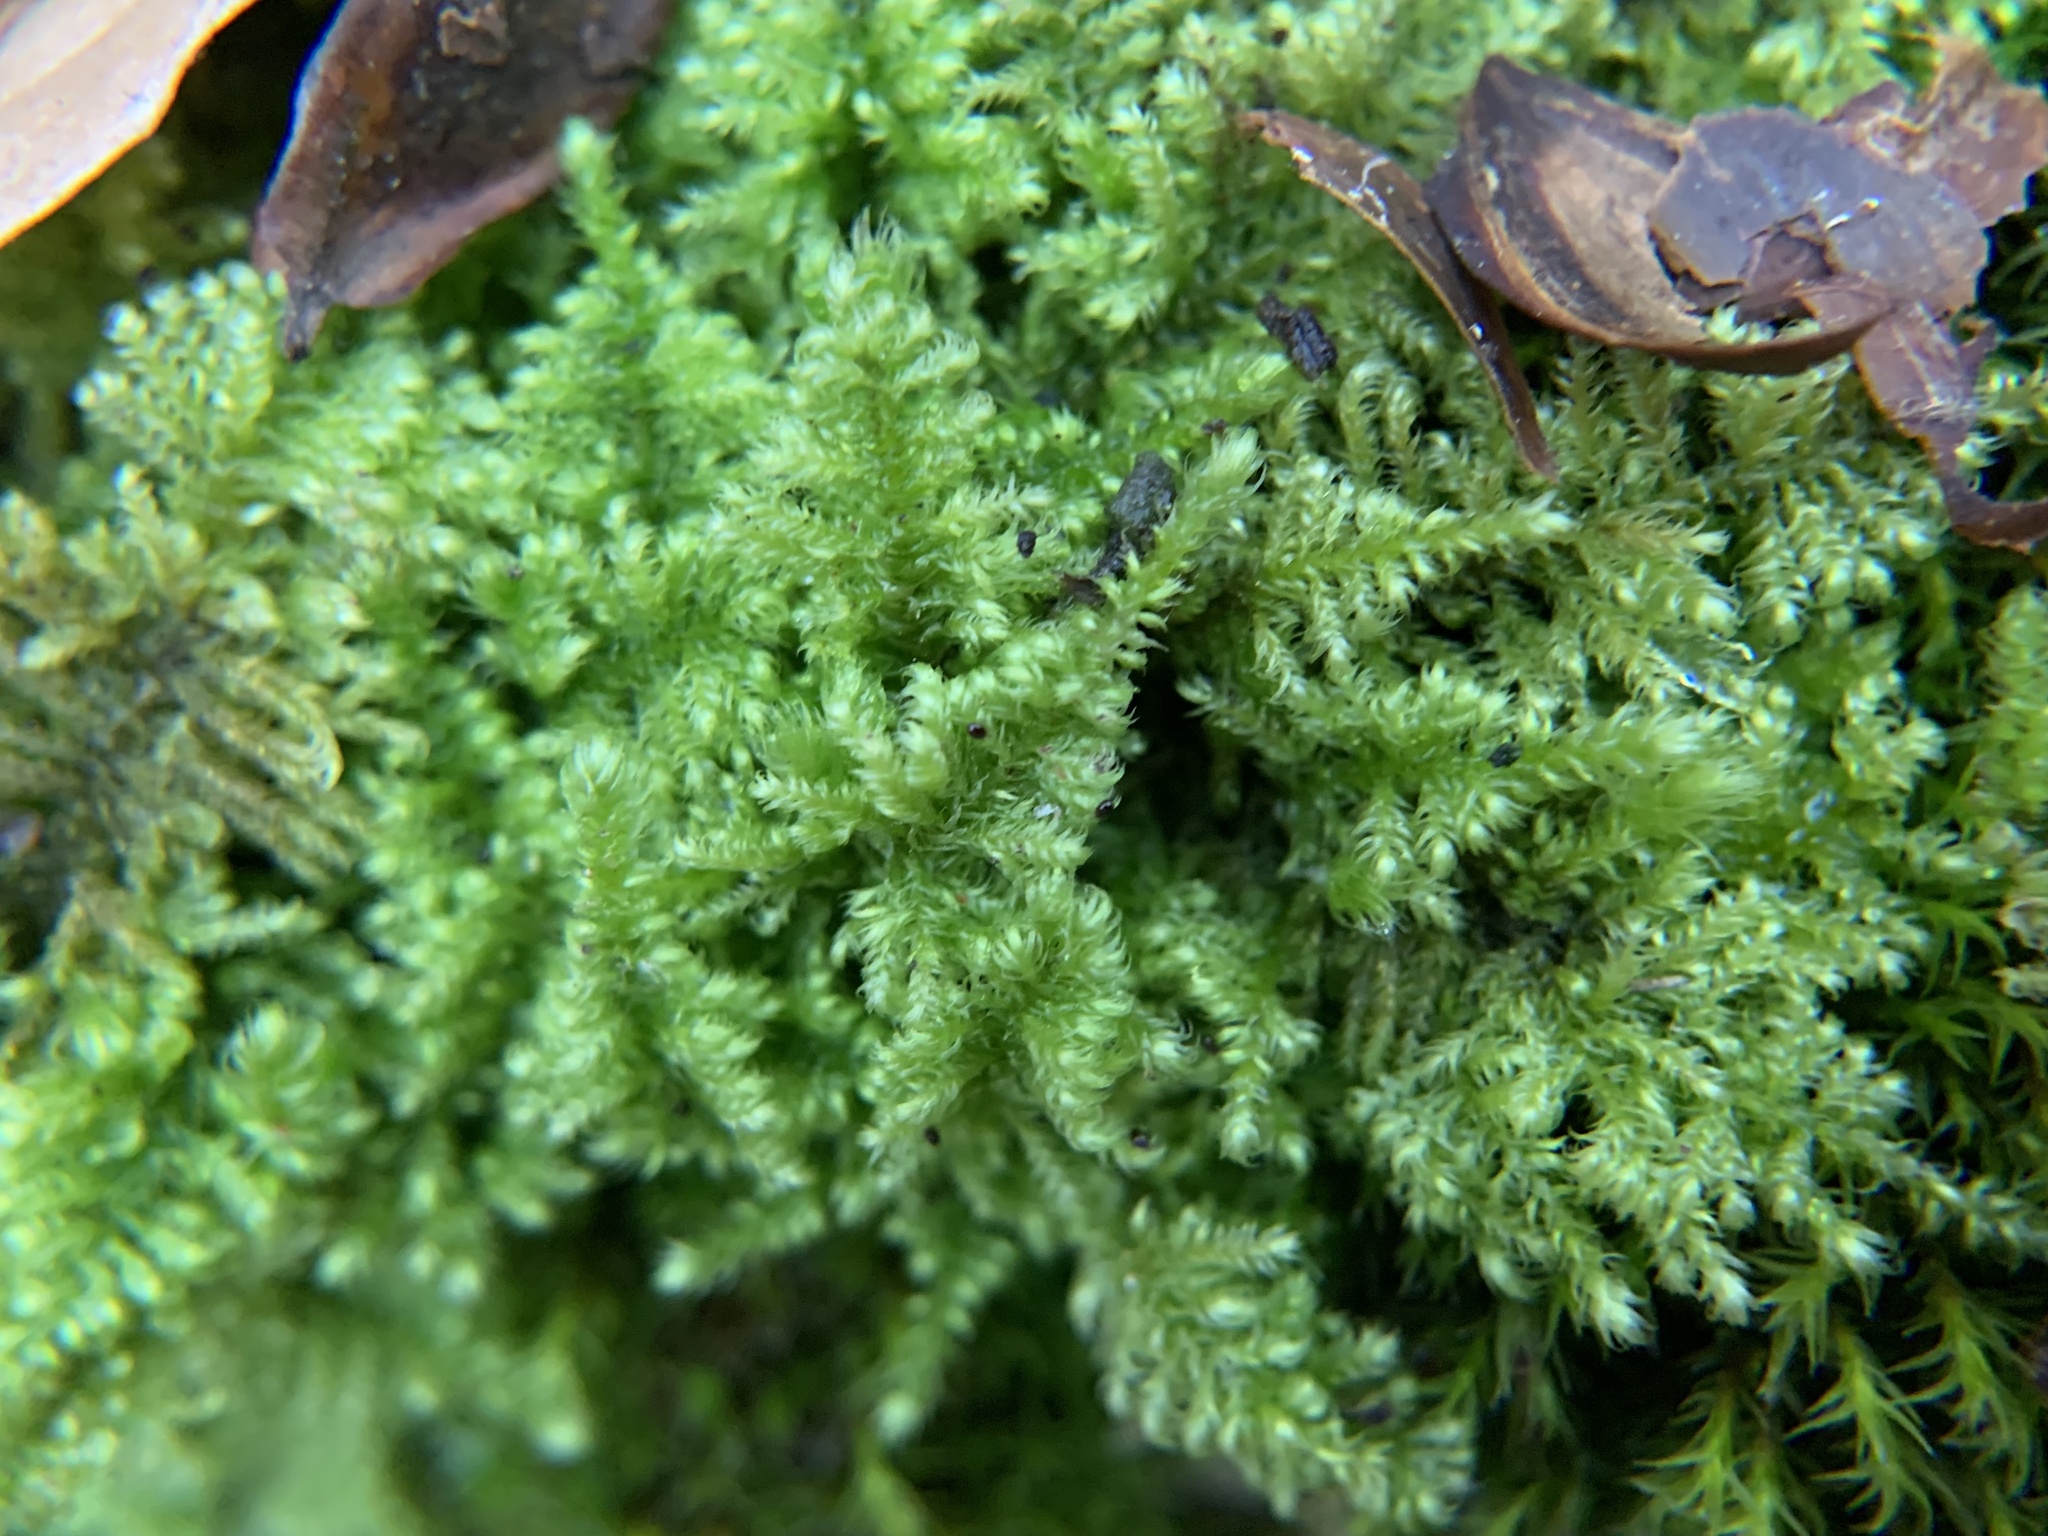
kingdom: Plantae
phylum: Bryophyta
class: Bryopsida
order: Hypnales
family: Myuriaceae
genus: Ctenidium
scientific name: Ctenidium molluscum
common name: Chalk comb-moss
